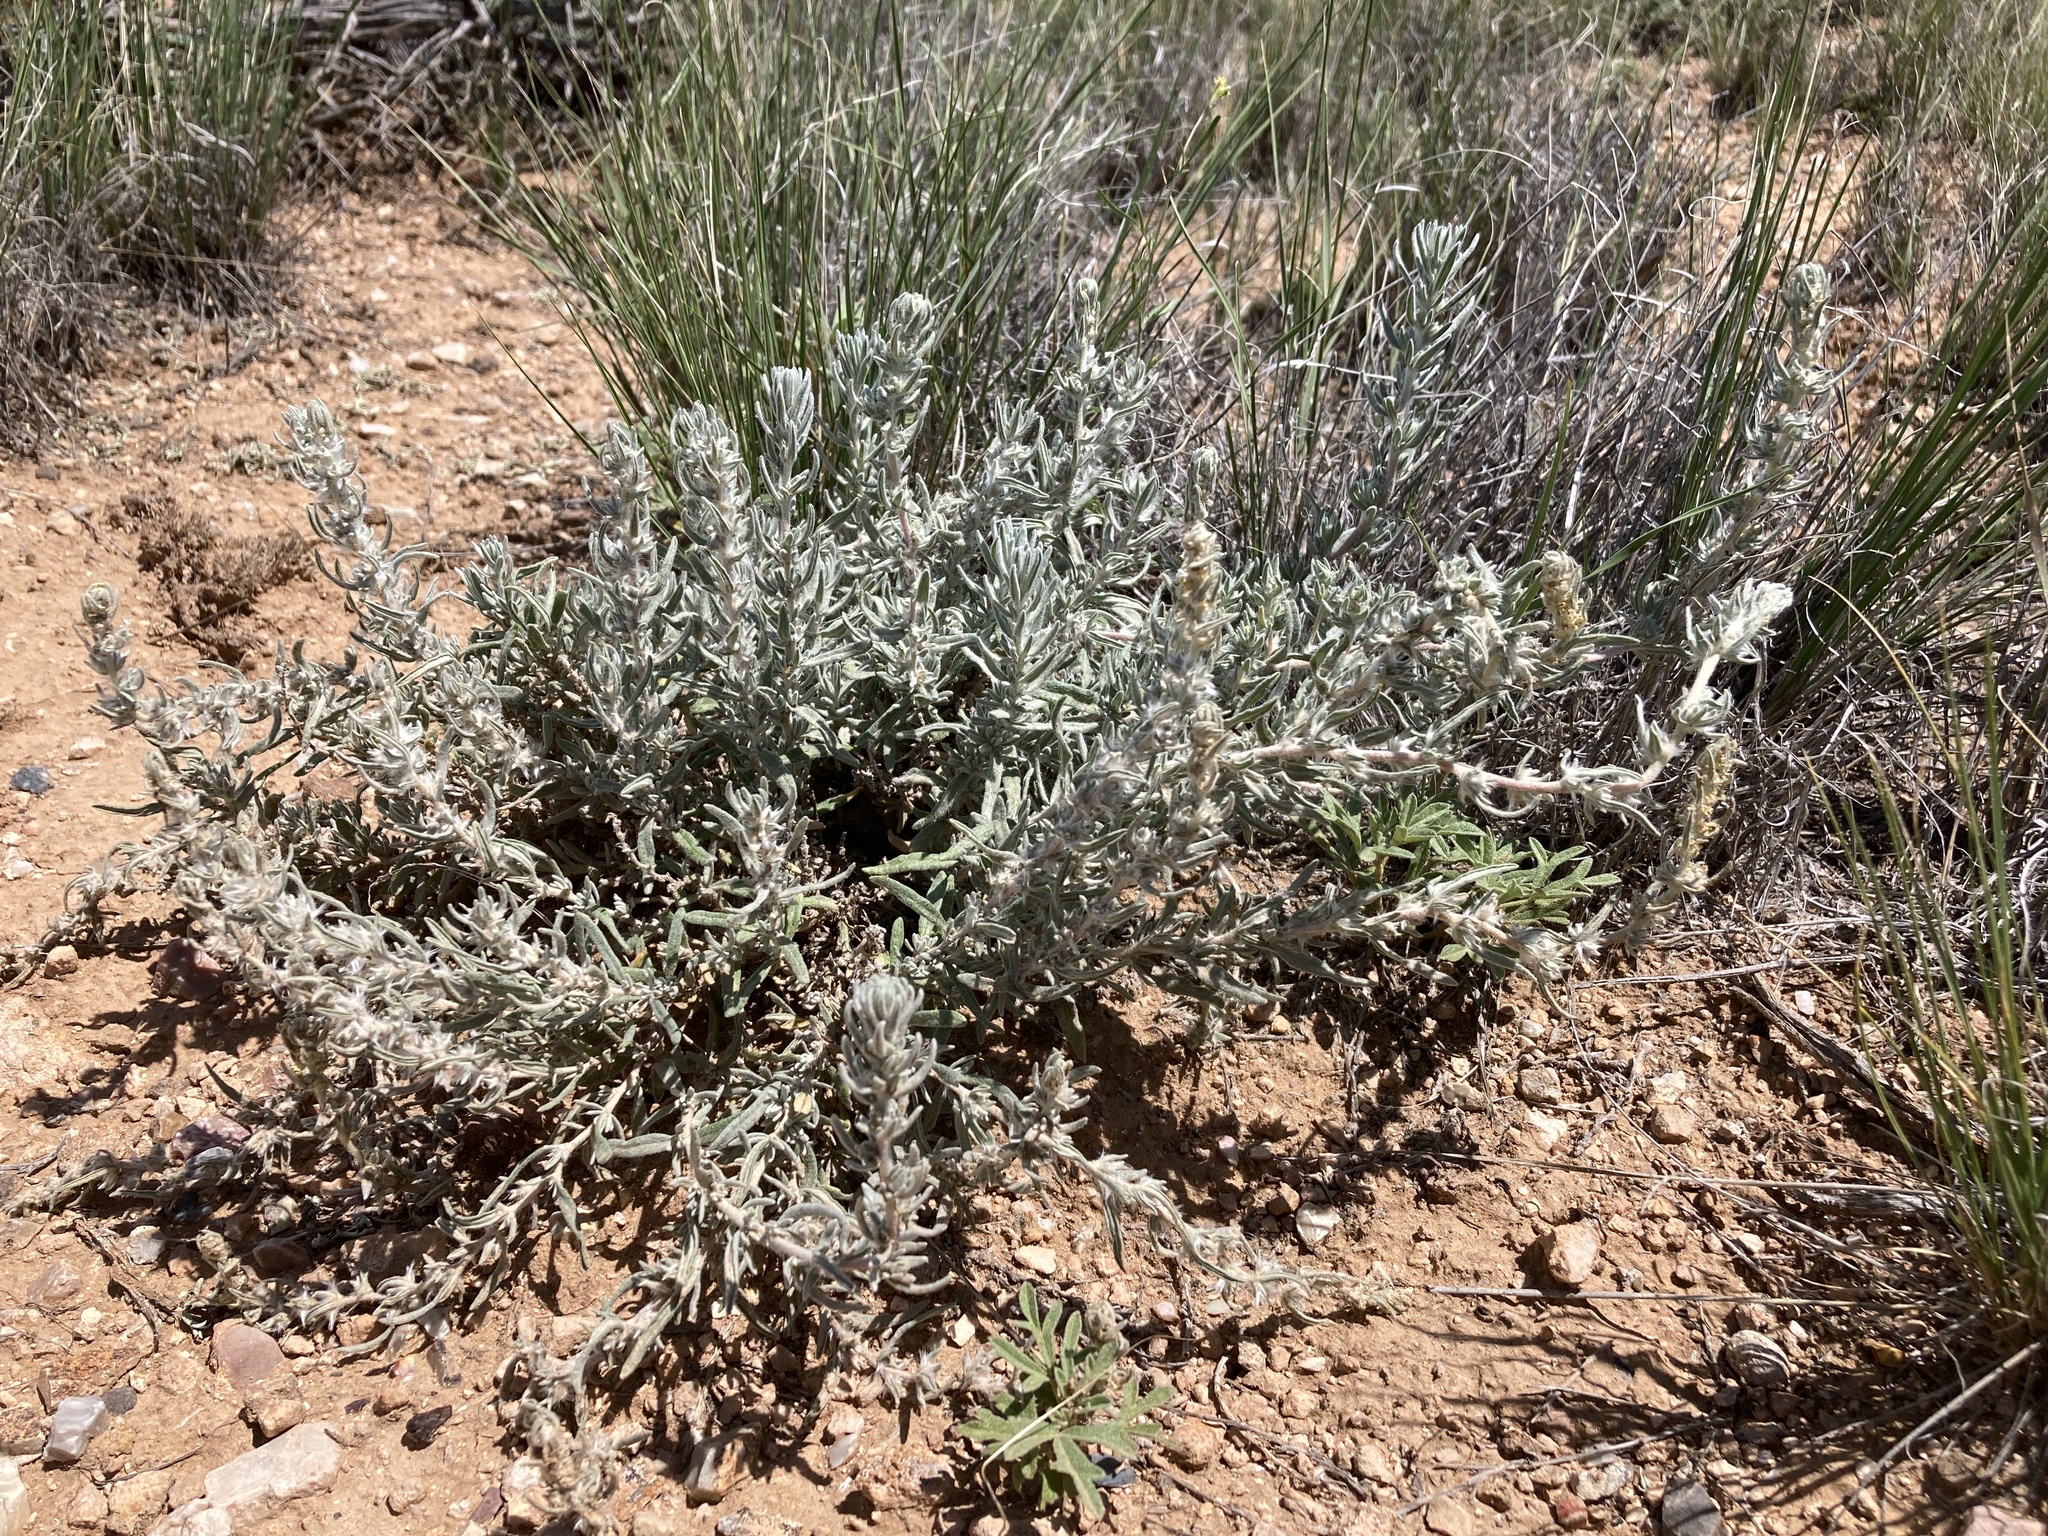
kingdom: Plantae
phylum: Tracheophyta
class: Magnoliopsida
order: Caryophyllales
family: Amaranthaceae
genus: Krascheninnikovia
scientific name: Krascheninnikovia lanata
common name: Winterfat
